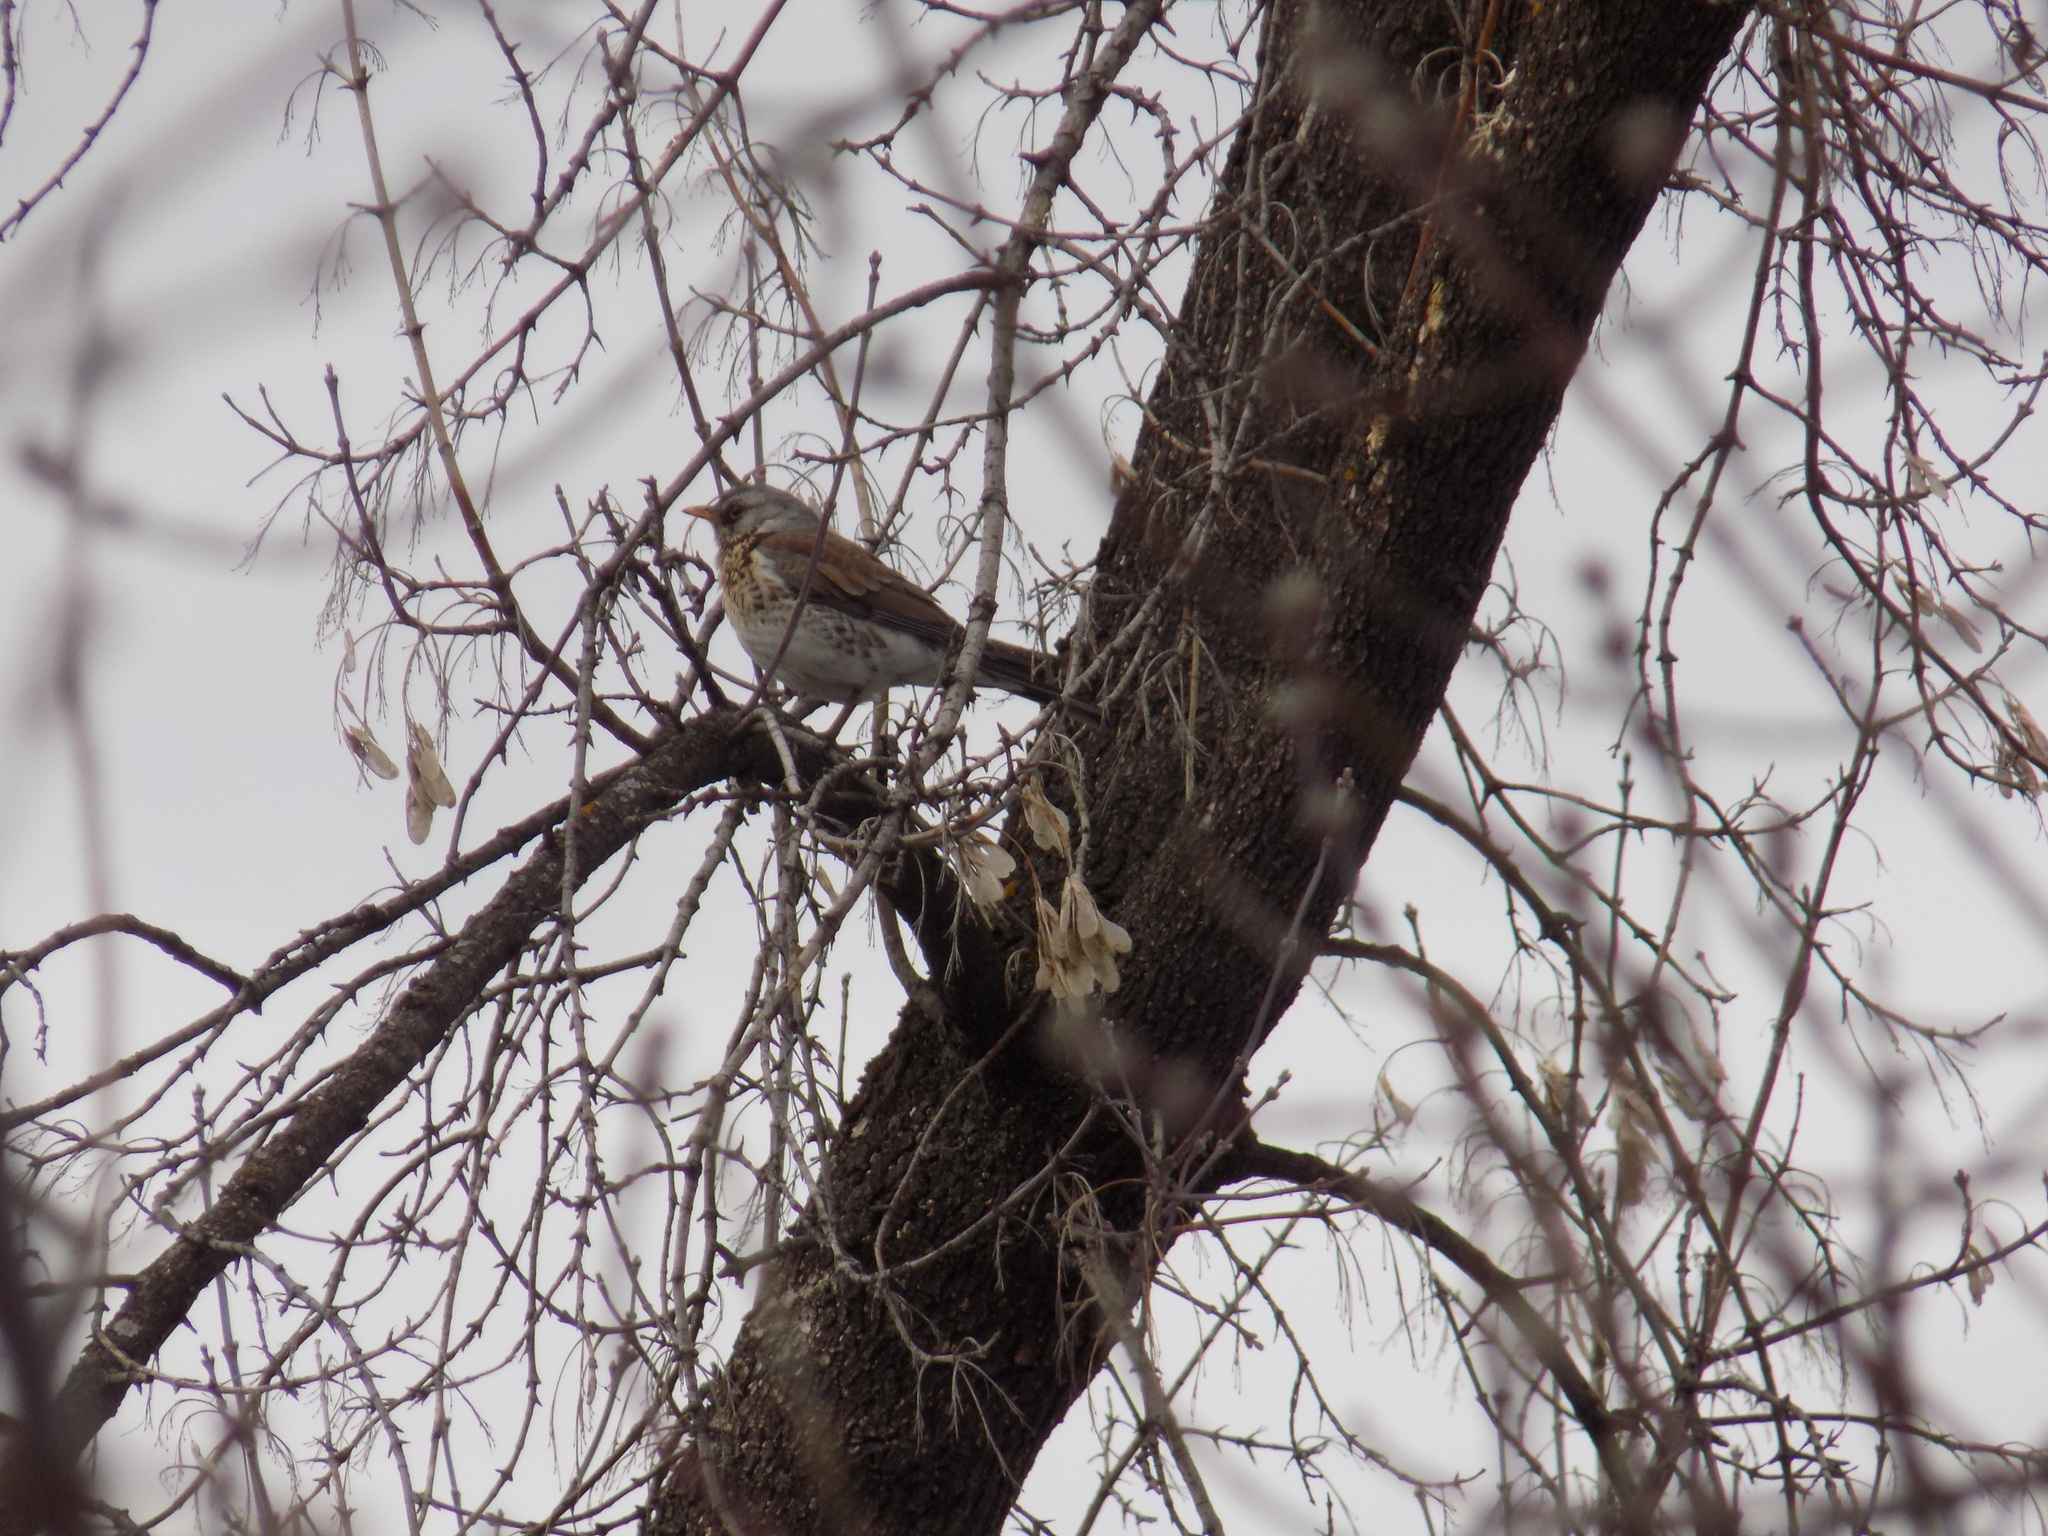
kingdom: Animalia
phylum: Chordata
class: Aves
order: Passeriformes
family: Turdidae
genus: Turdus
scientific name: Turdus pilaris
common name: Fieldfare
